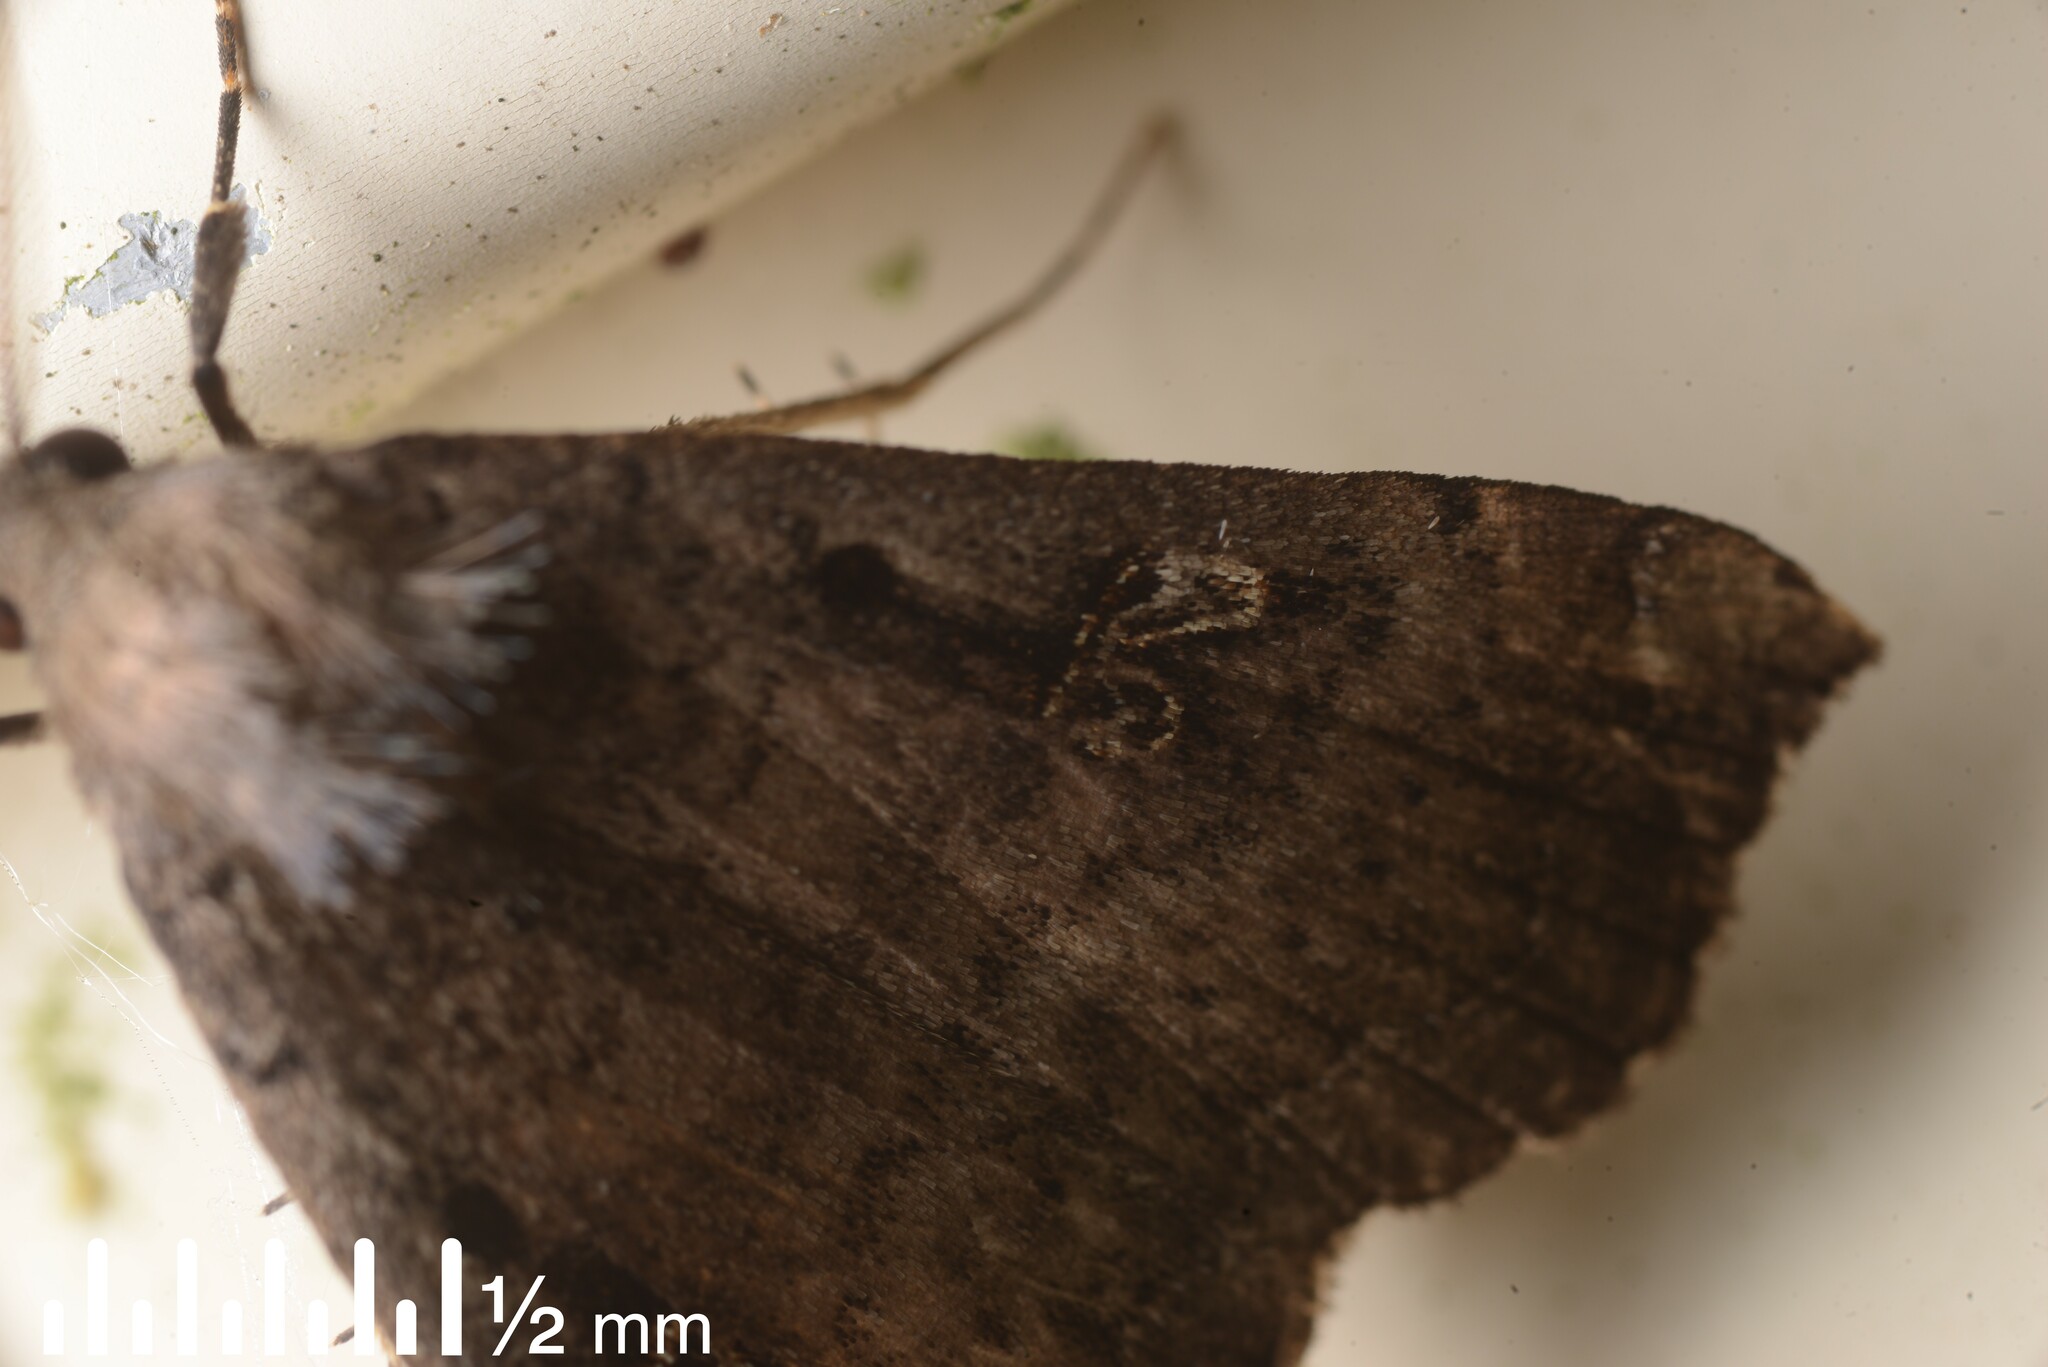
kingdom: Animalia
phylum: Arthropoda
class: Insecta
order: Lepidoptera
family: Erebidae
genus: Rhapsa
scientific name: Rhapsa scotosialis
